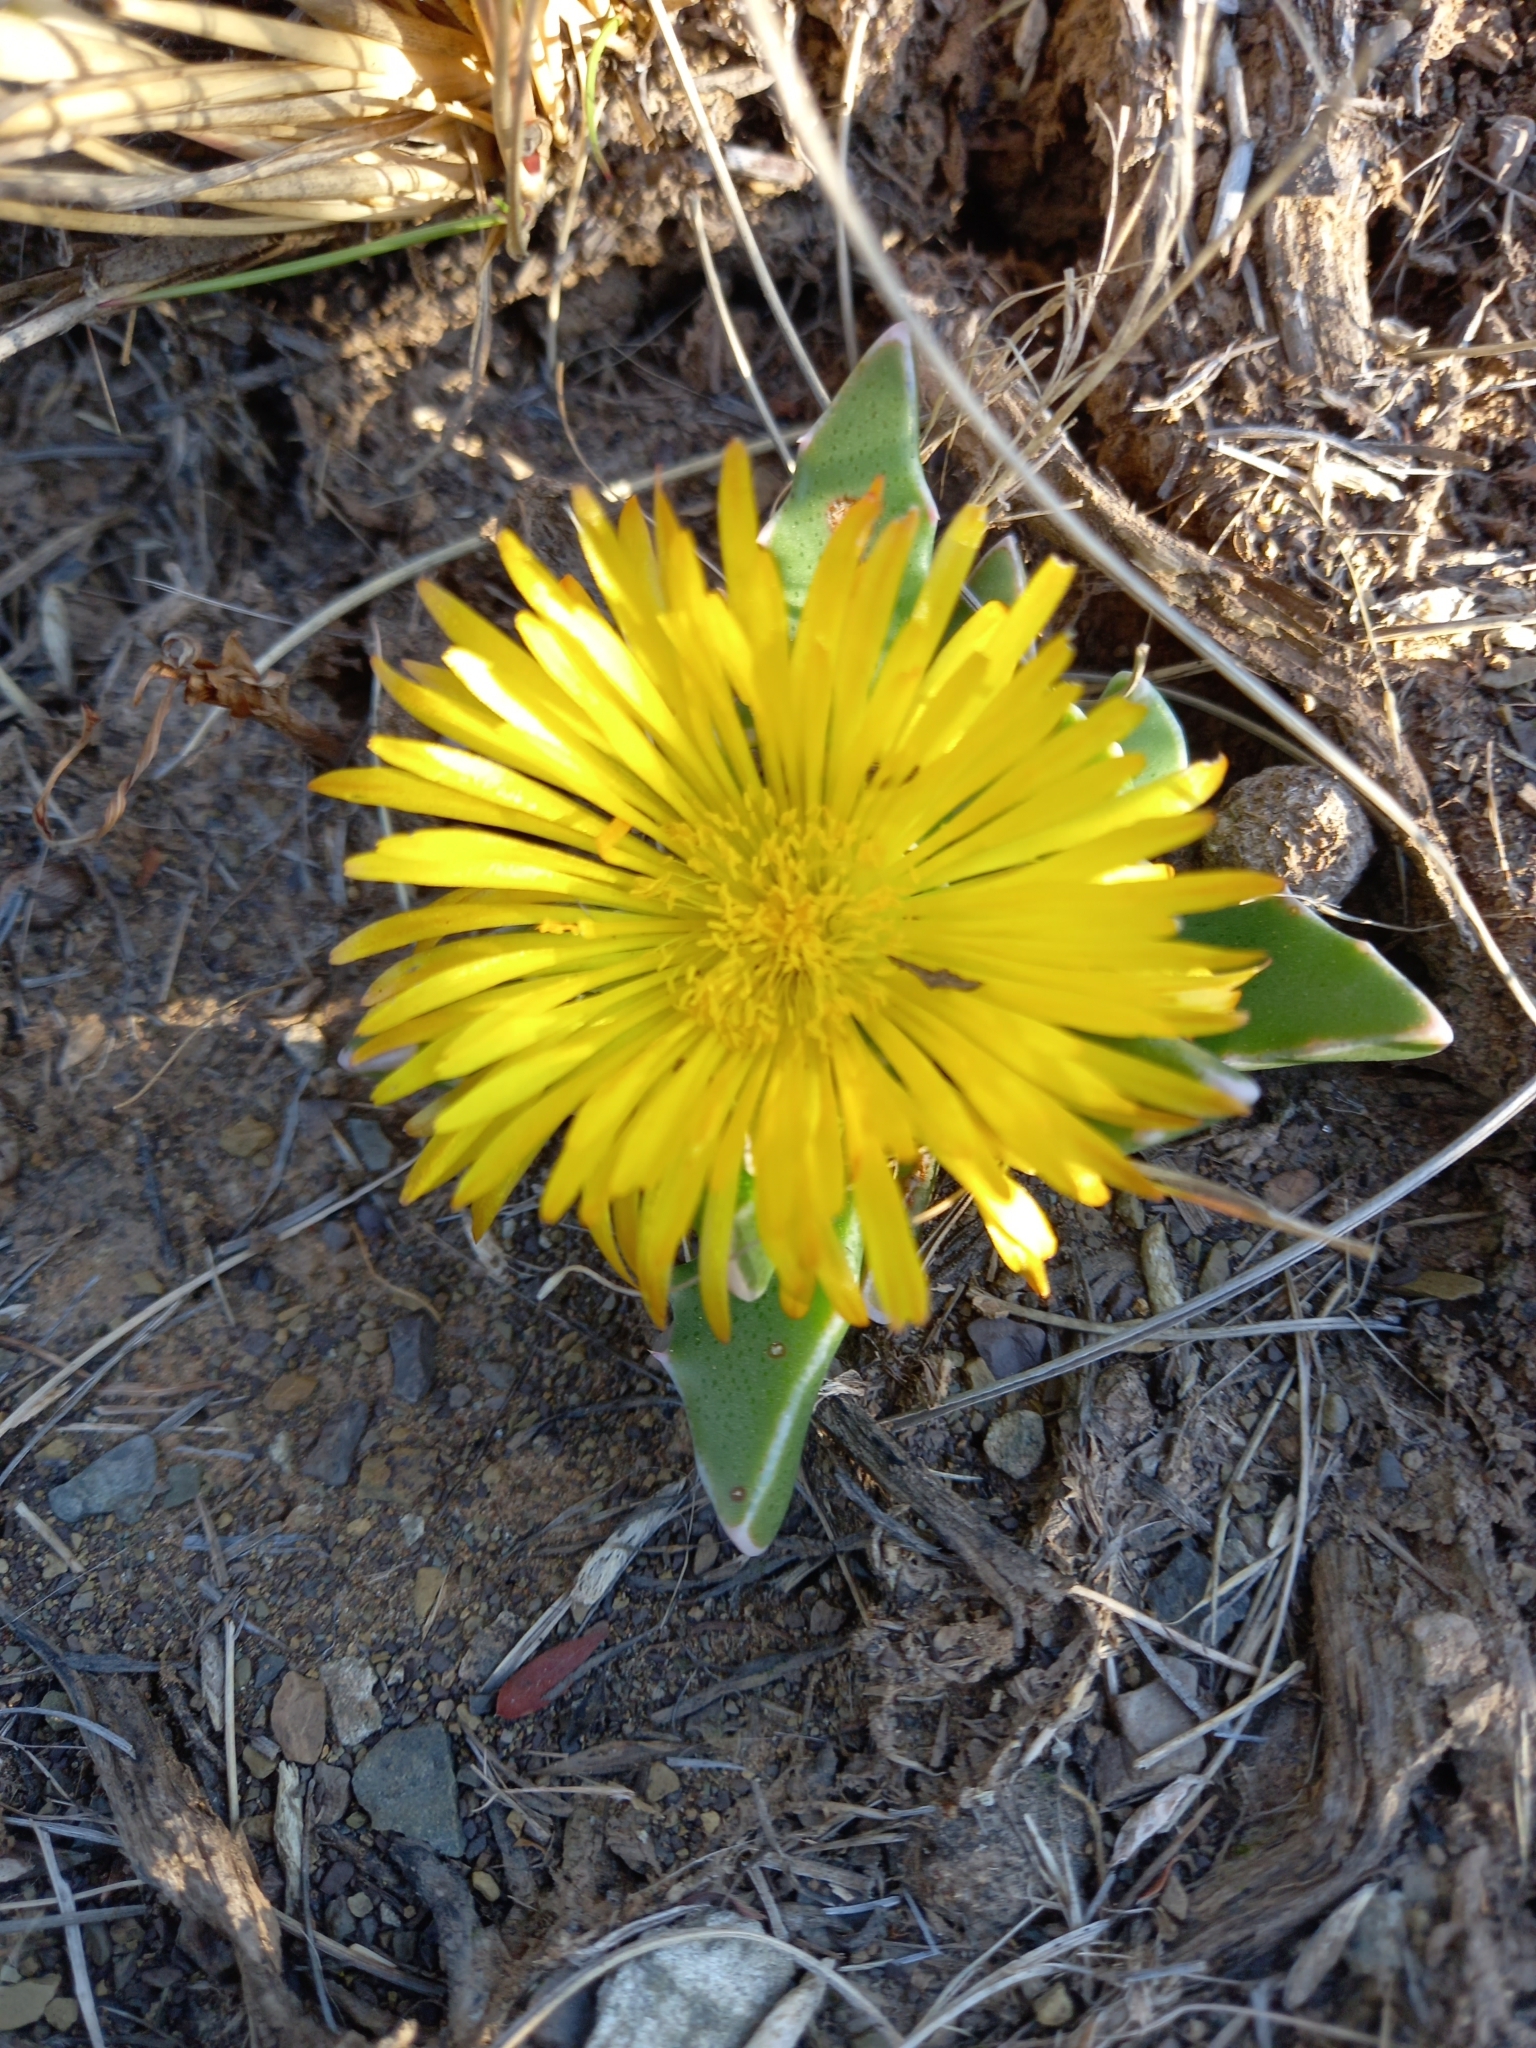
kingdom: Plantae
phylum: Tracheophyta
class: Magnoliopsida
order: Caryophyllales
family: Aizoaceae
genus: Faucaria
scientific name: Faucaria bosscheana
